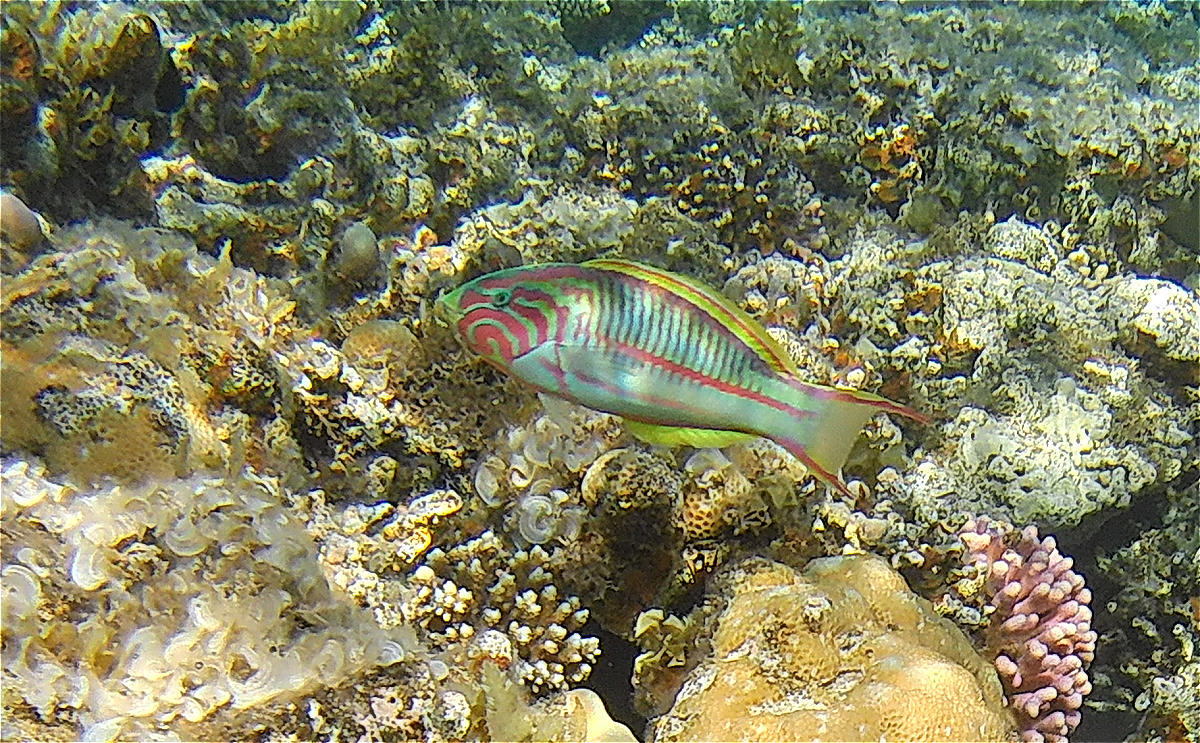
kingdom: Animalia
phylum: Chordata
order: Perciformes
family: Labridae
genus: Thalassoma
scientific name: Thalassoma rueppellii
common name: Klunzinger's wrasse
